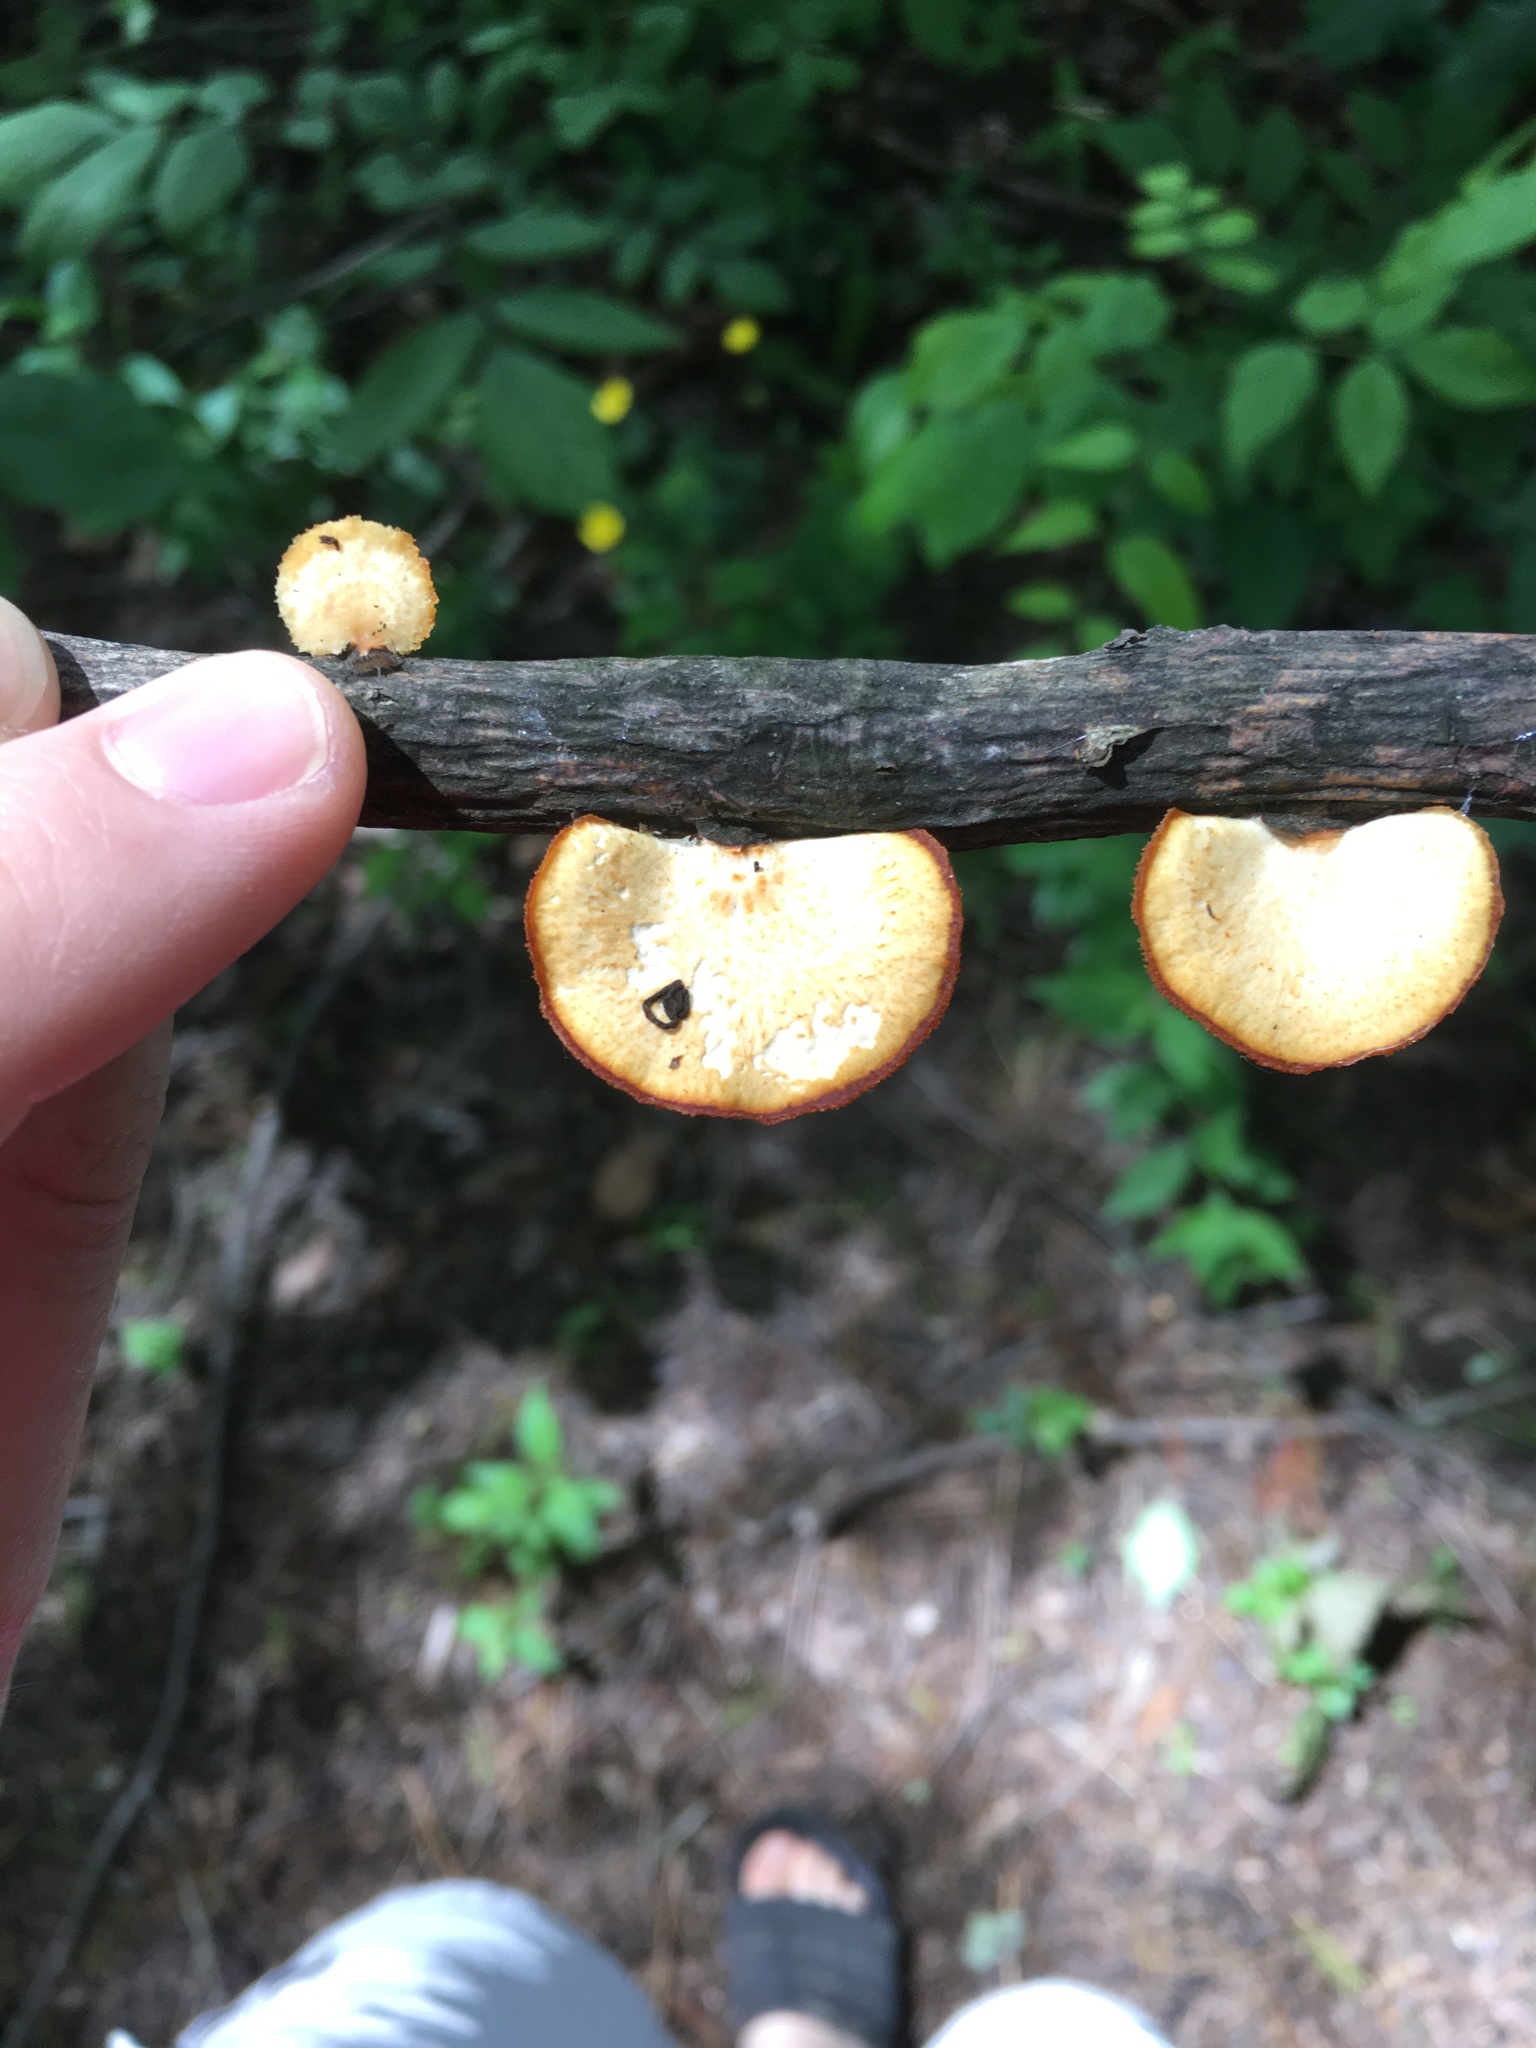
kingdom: Fungi
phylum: Basidiomycota
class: Agaricomycetes
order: Polyporales
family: Polyporaceae
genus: Neofavolus
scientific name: Neofavolus alveolaris
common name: Hexagonal-pored polypore
